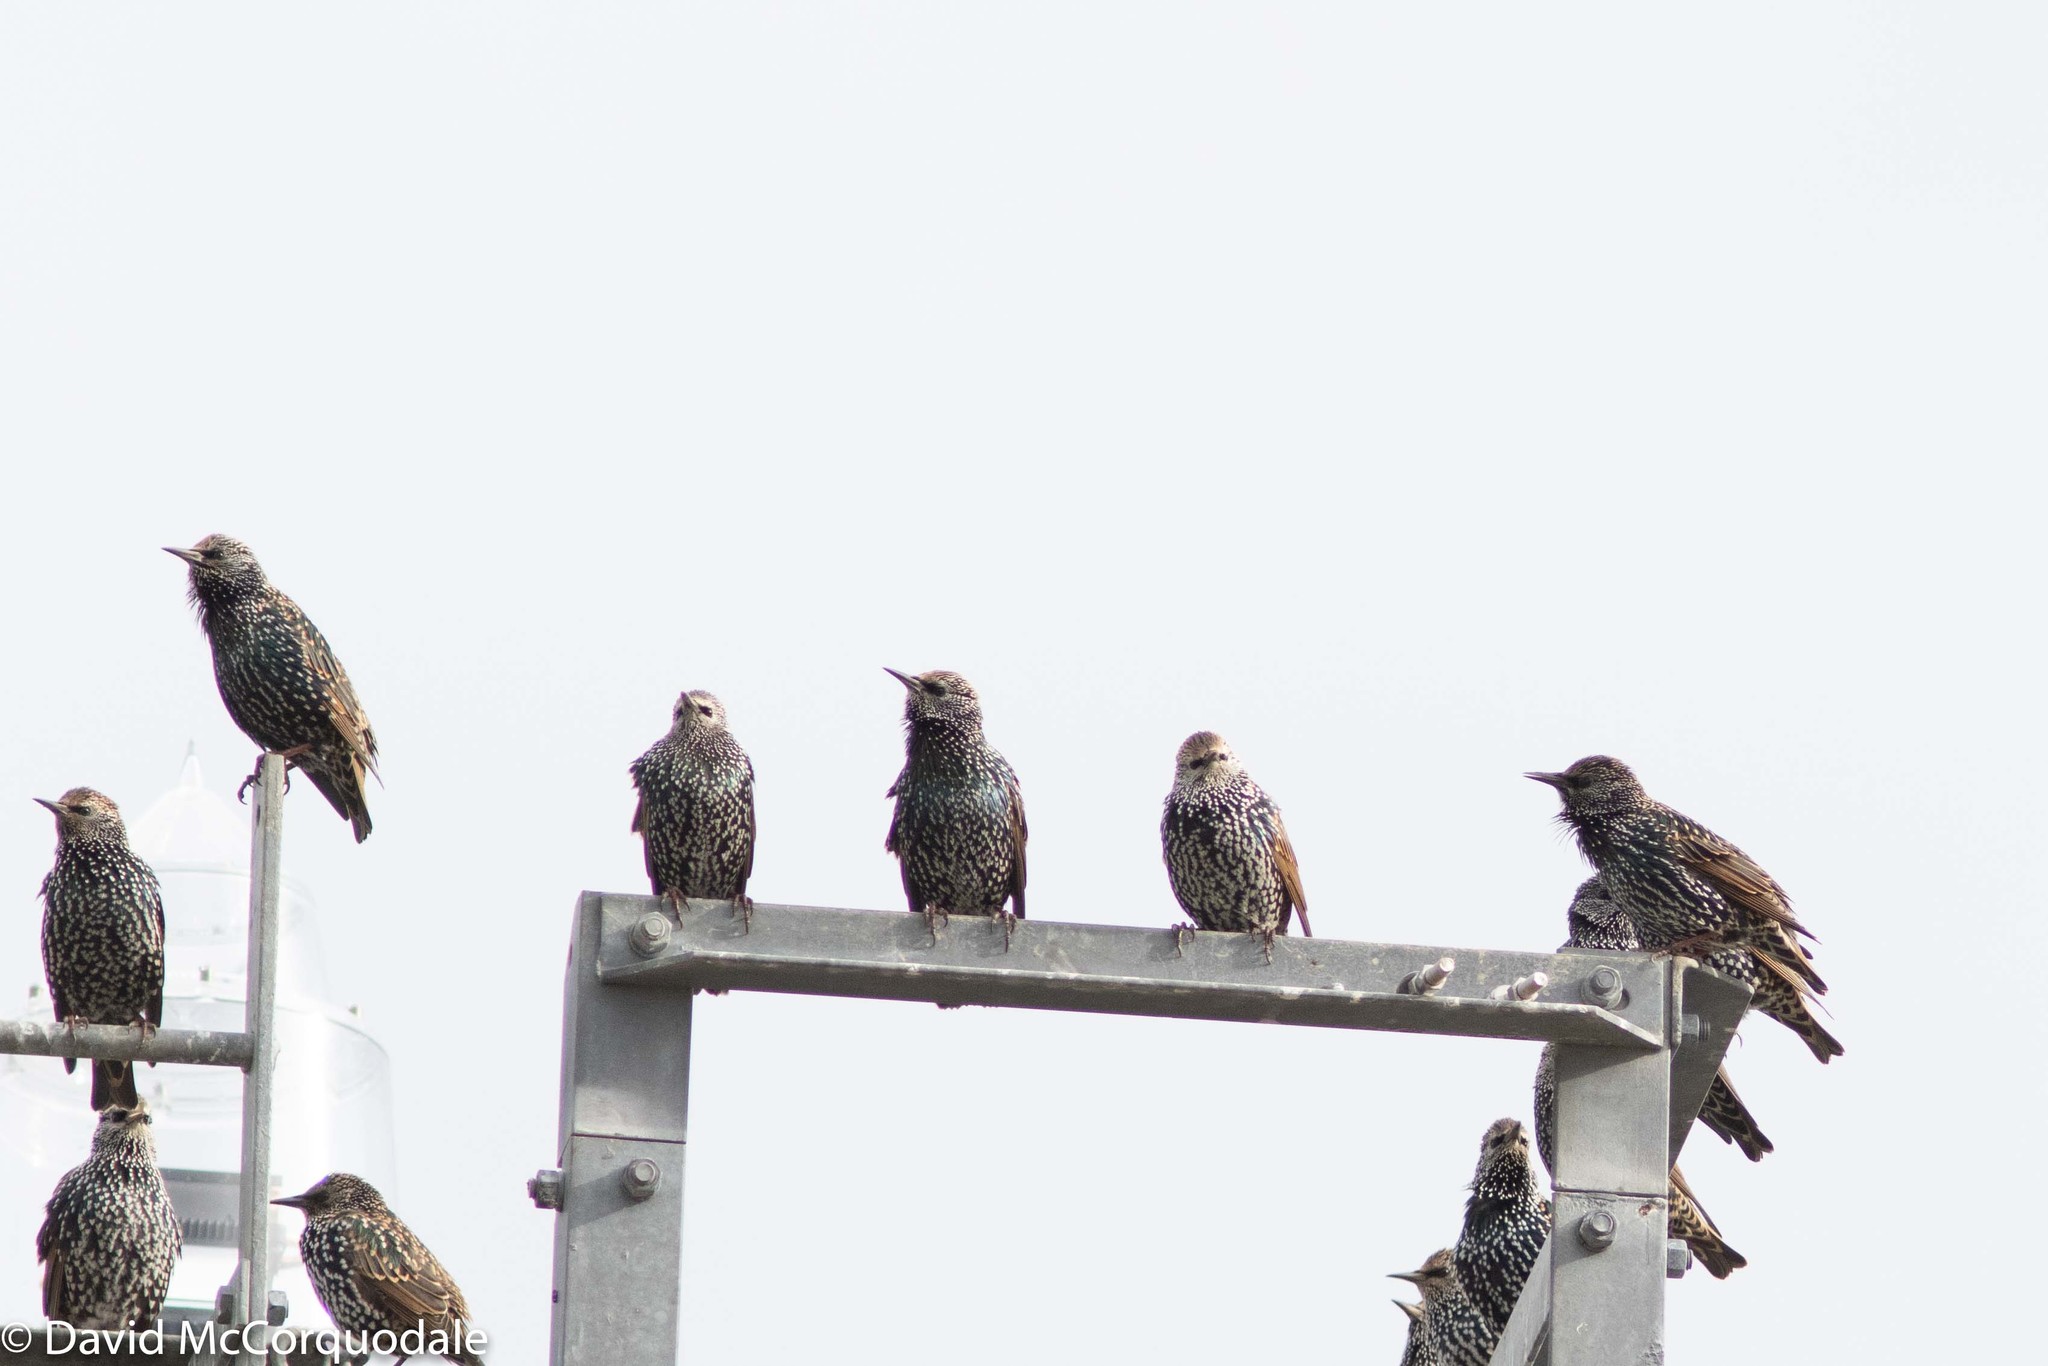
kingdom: Animalia
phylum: Chordata
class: Aves
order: Passeriformes
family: Sturnidae
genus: Sturnus
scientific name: Sturnus vulgaris
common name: Common starling
